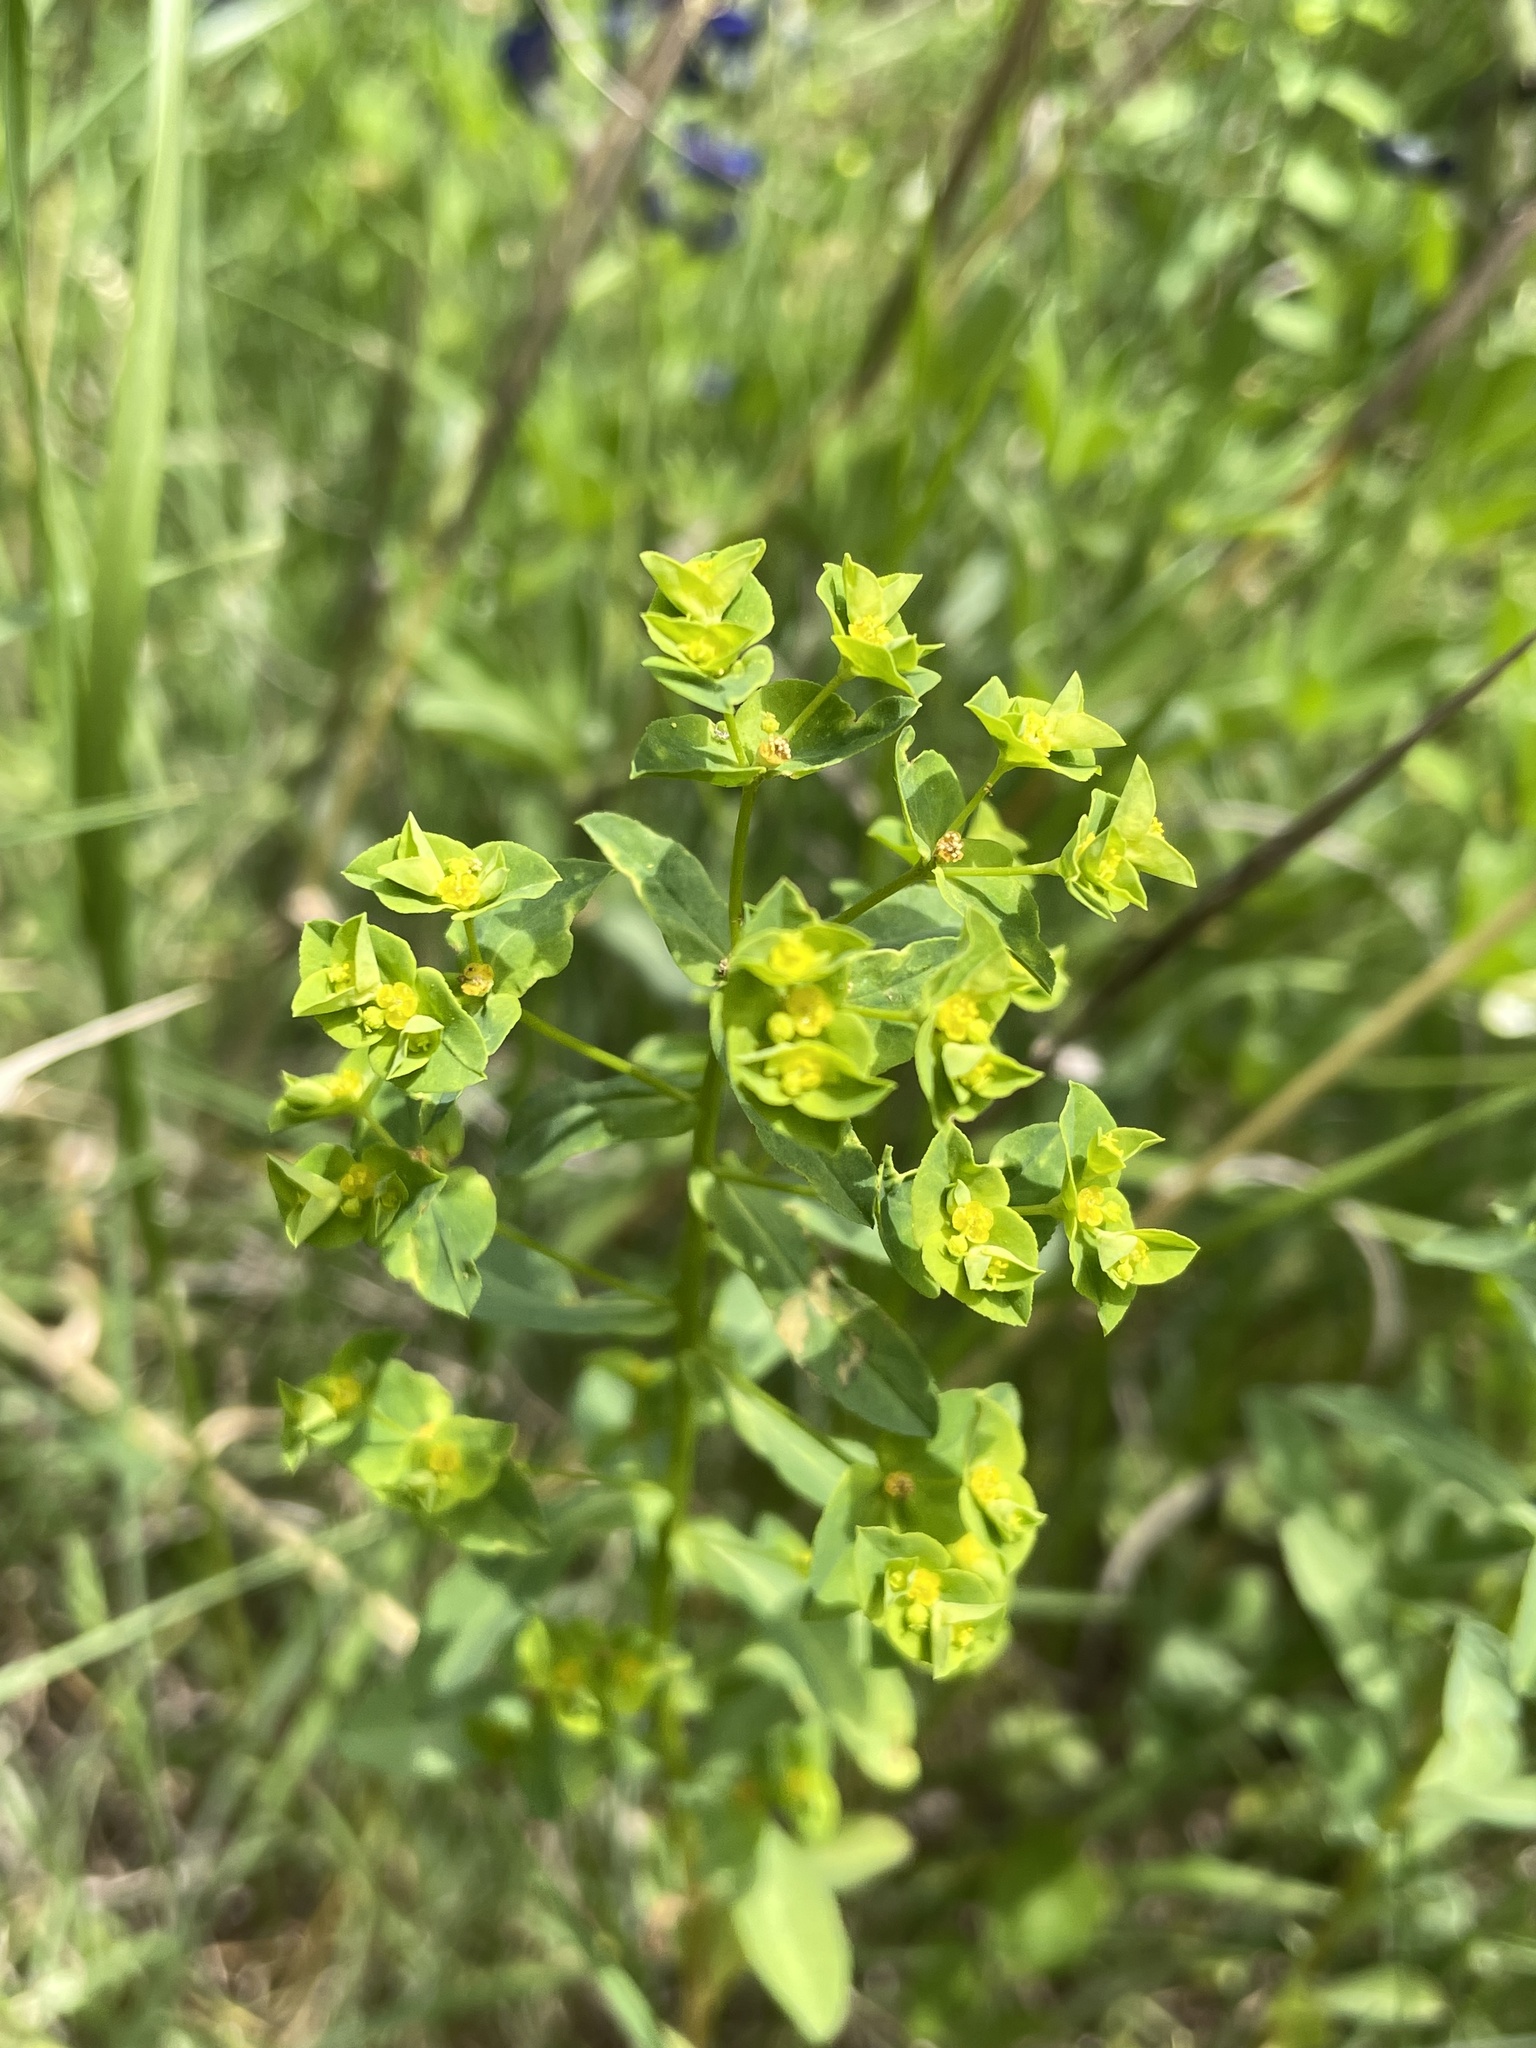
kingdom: Plantae
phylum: Tracheophyta
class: Magnoliopsida
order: Malpighiales
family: Euphorbiaceae
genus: Euphorbia
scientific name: Euphorbia spathulata
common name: Blunt spurge
